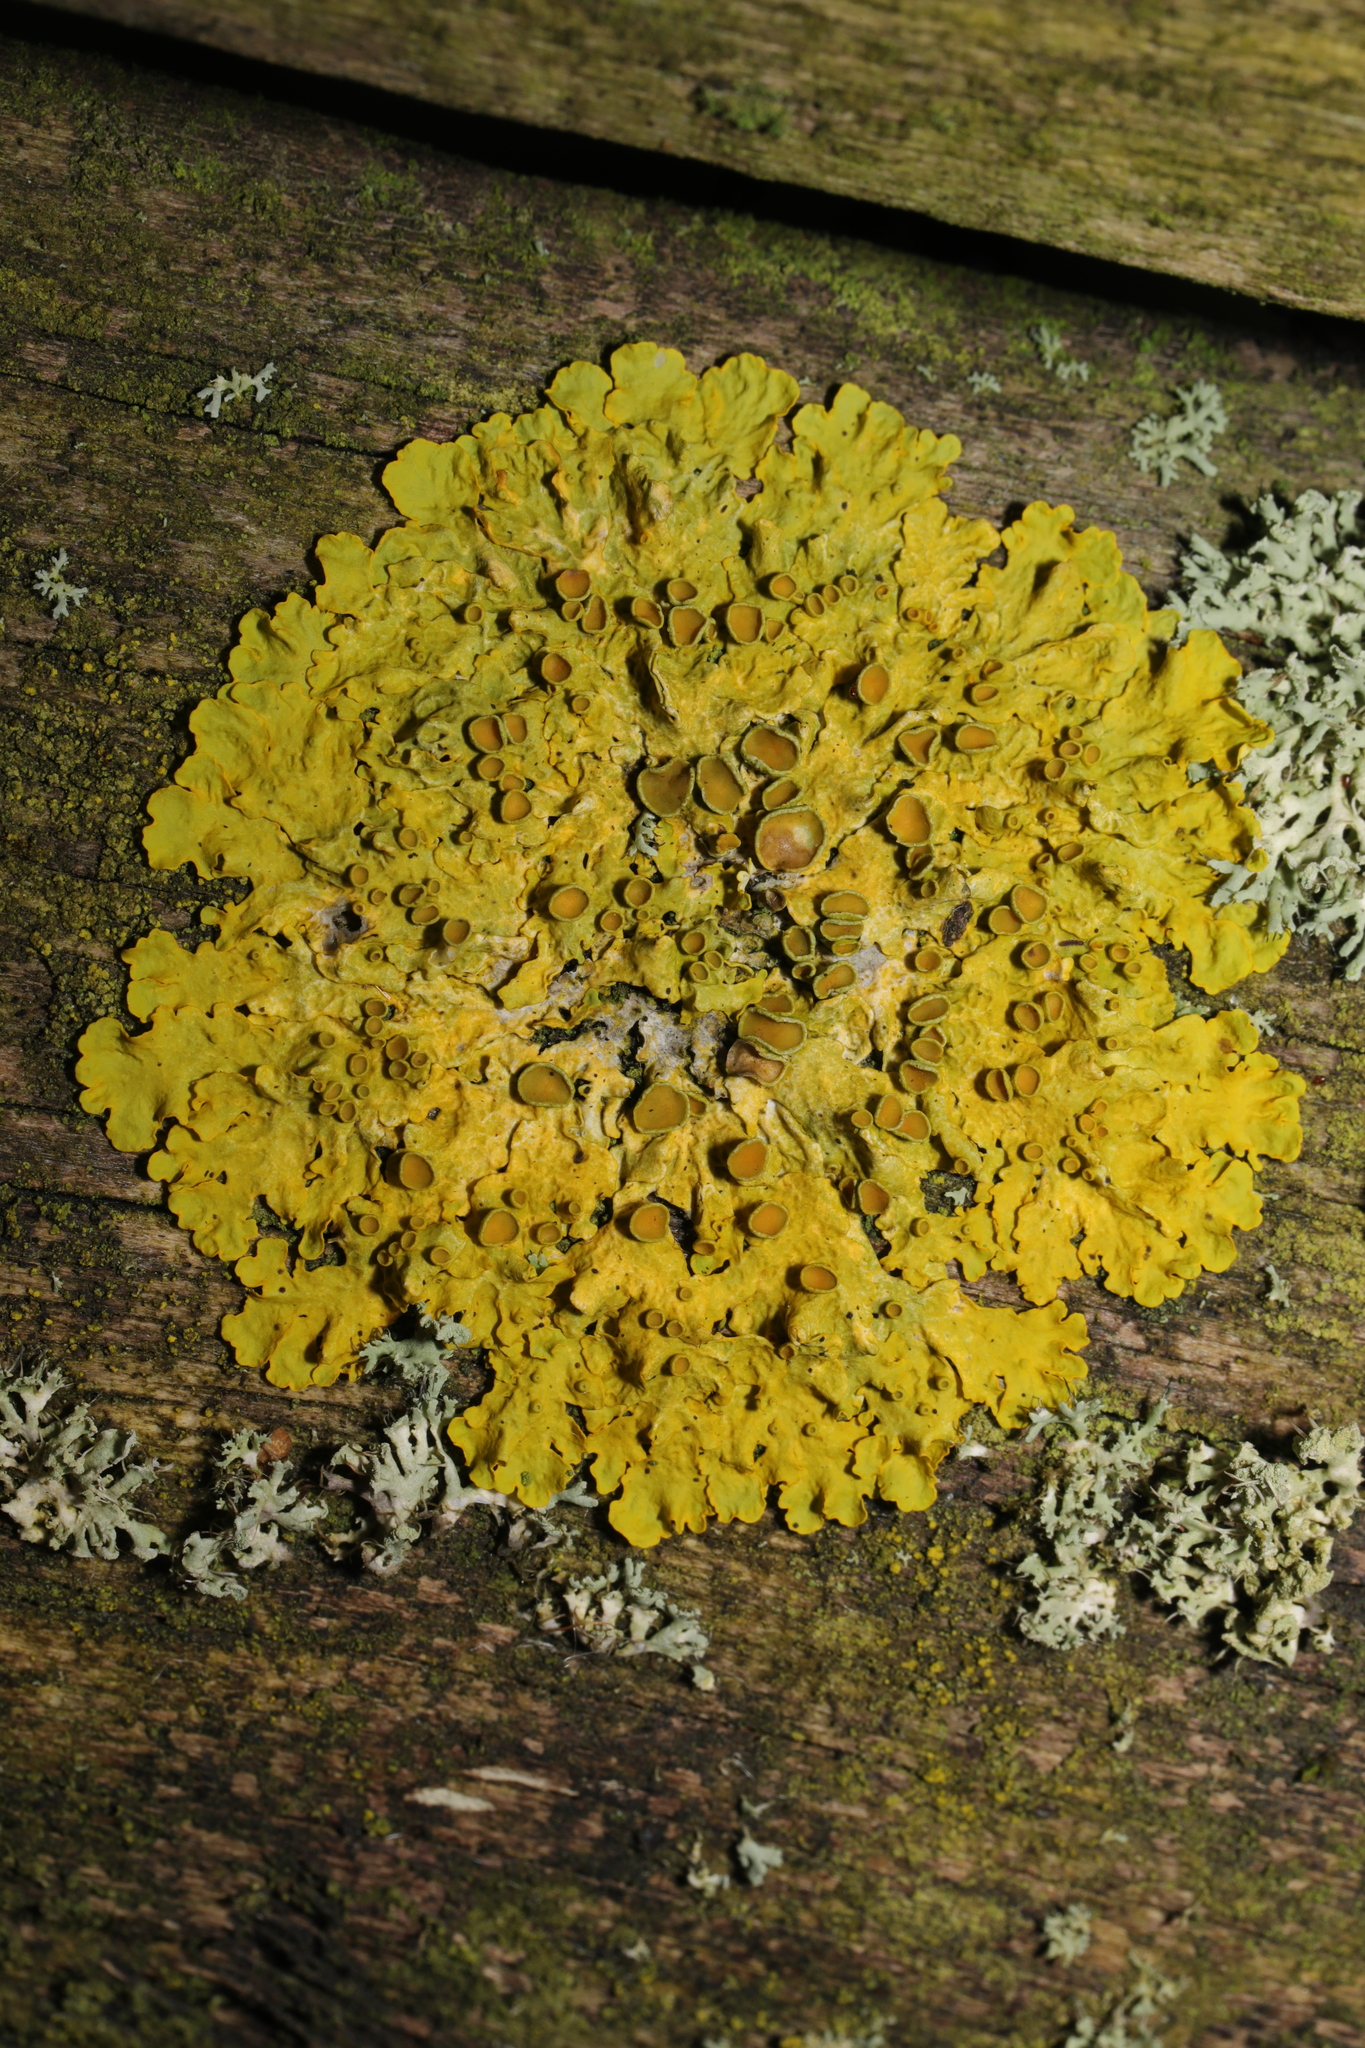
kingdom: Fungi
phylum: Ascomycota
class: Lecanoromycetes
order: Teloschistales
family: Teloschistaceae
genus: Xanthoria
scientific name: Xanthoria parietina
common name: Common orange lichen
